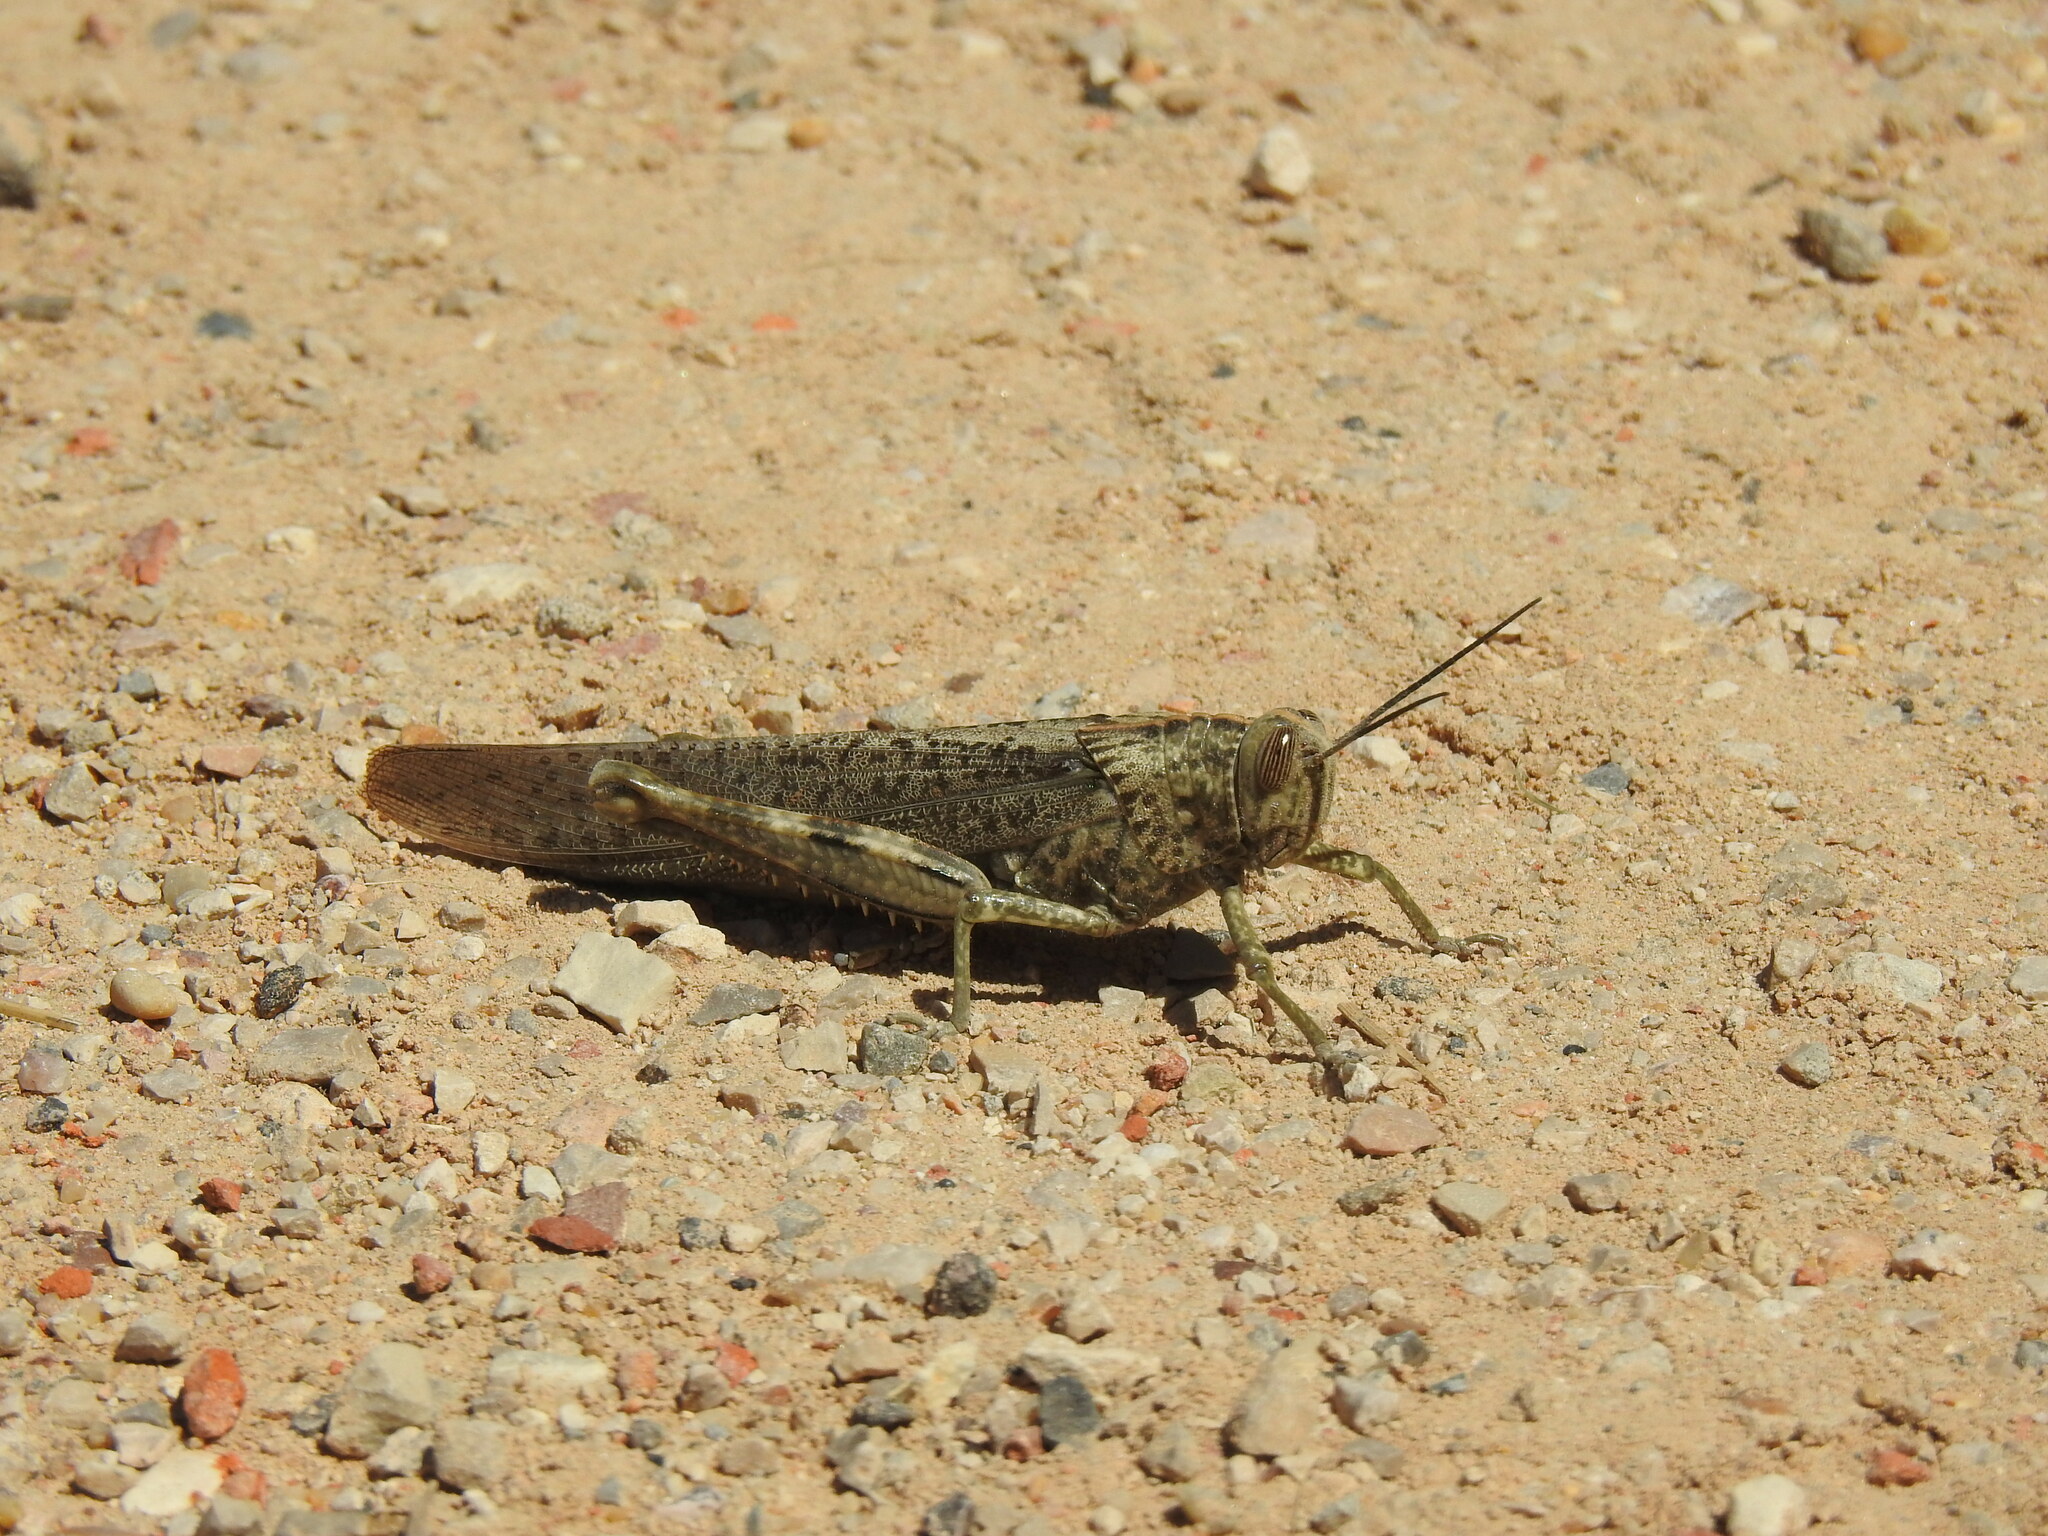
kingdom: Animalia
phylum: Arthropoda
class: Insecta
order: Orthoptera
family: Acrididae
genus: Anacridium
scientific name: Anacridium aegyptium
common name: Egyptian grasshopper
